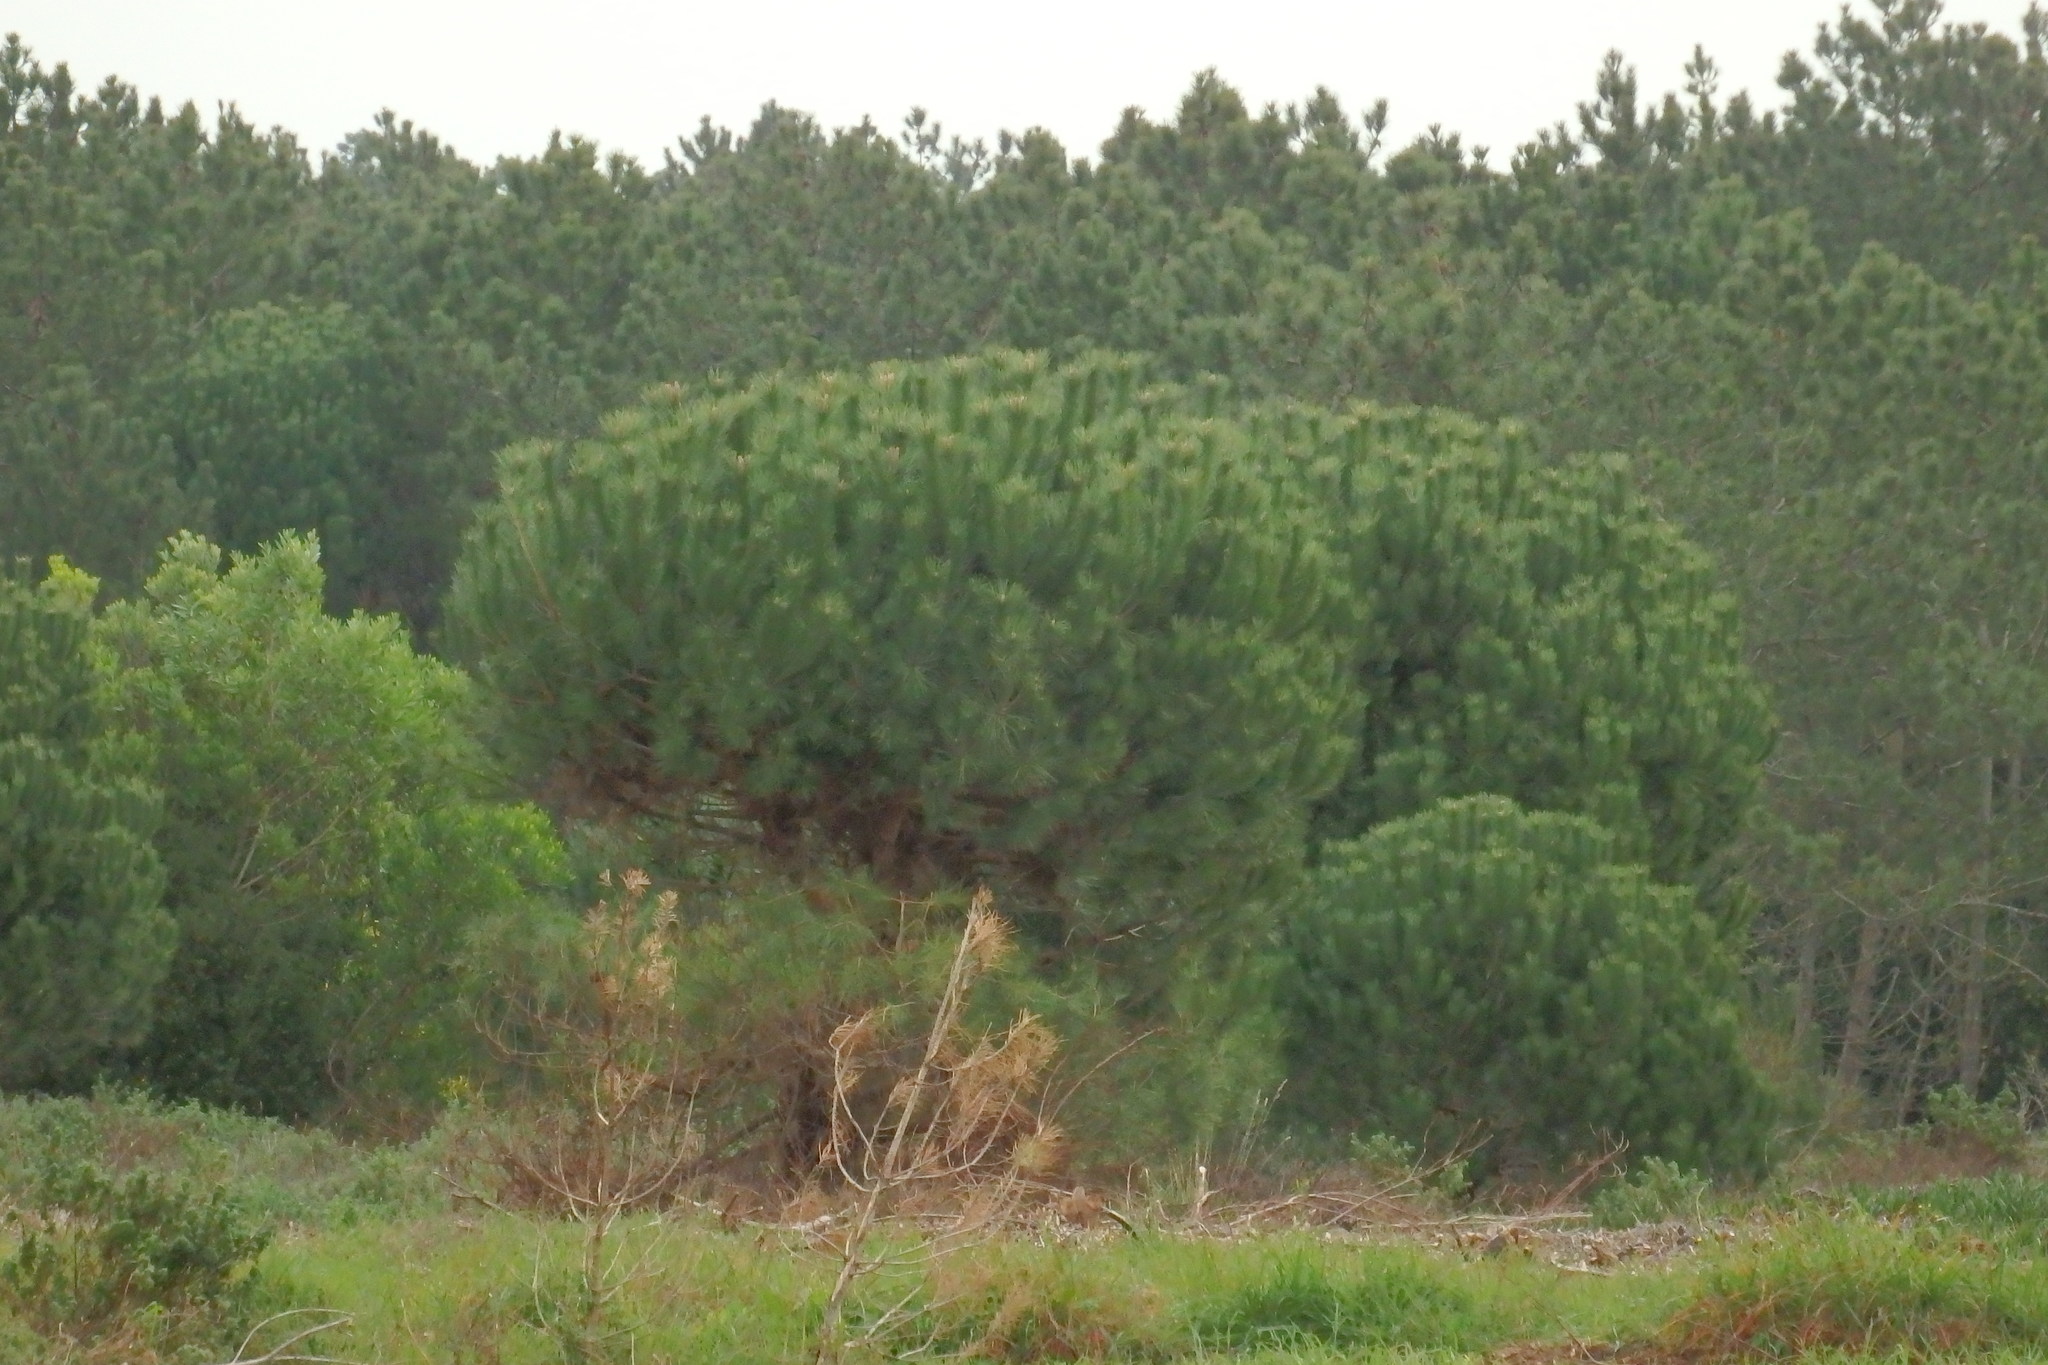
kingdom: Plantae
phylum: Tracheophyta
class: Pinopsida
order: Pinales
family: Pinaceae
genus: Pinus
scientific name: Pinus pinea
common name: Italian stone pine
